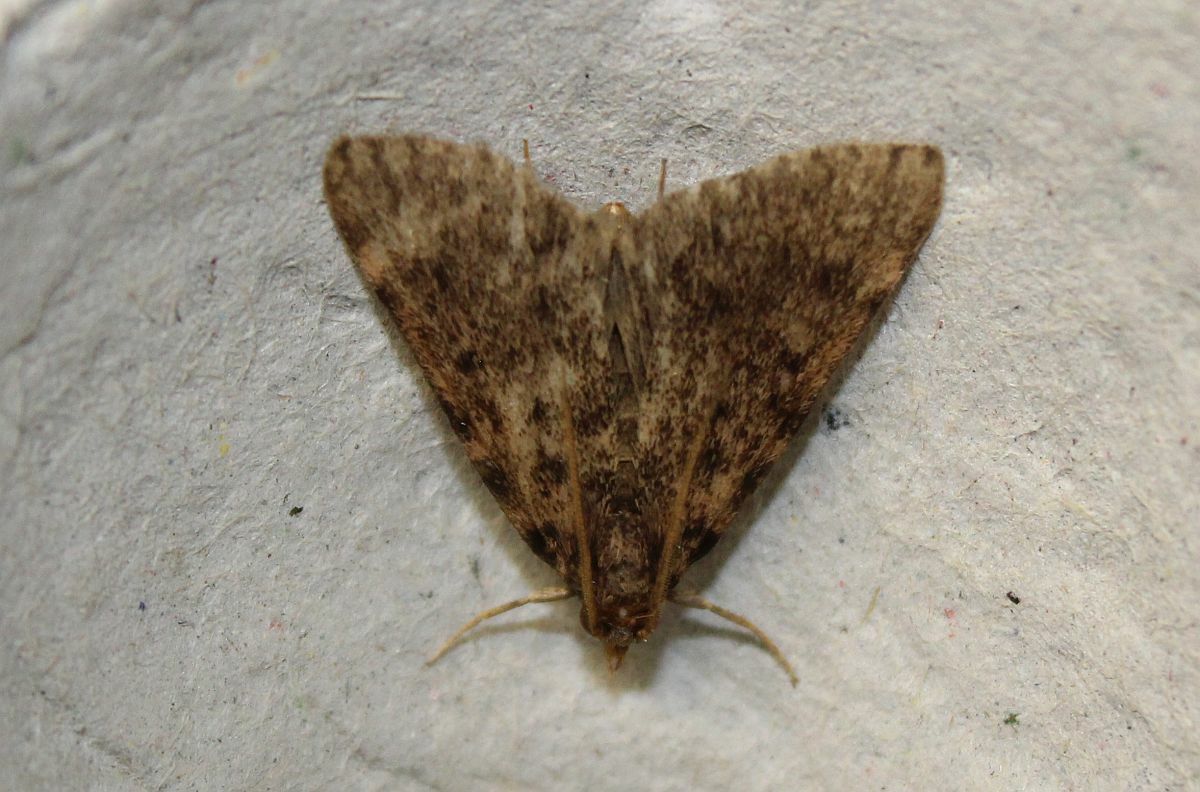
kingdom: Animalia
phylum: Arthropoda
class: Insecta
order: Lepidoptera
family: Pyralidae
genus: Aglossa
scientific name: Aglossa pinguinalis
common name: Large tabby
